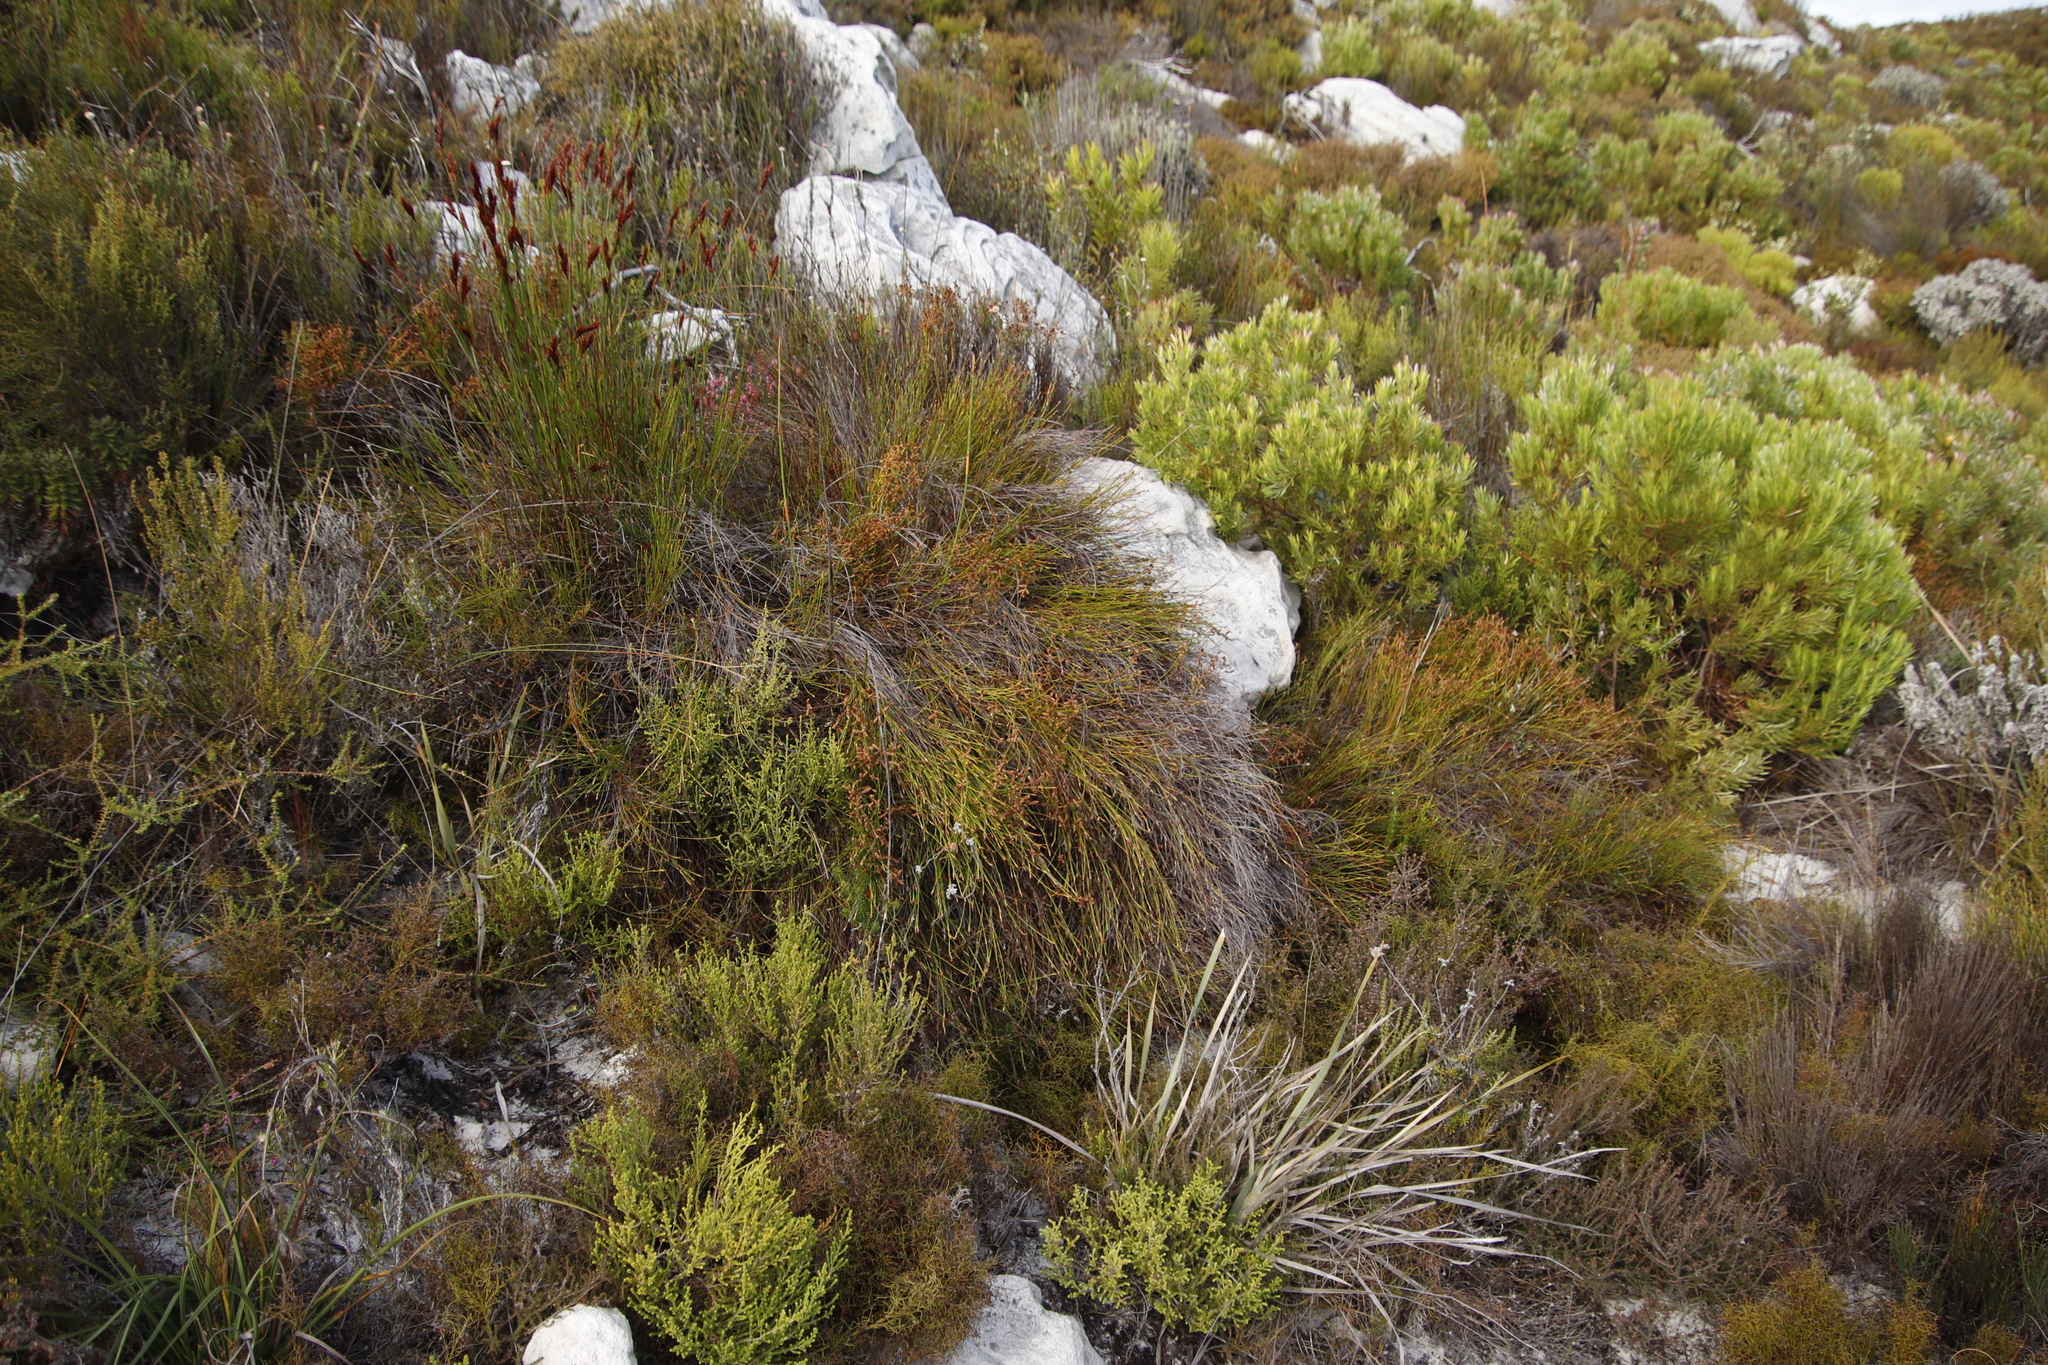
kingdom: Plantae
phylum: Tracheophyta
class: Liliopsida
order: Poales
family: Restionaceae
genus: Mastersiella
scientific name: Mastersiella digitata
